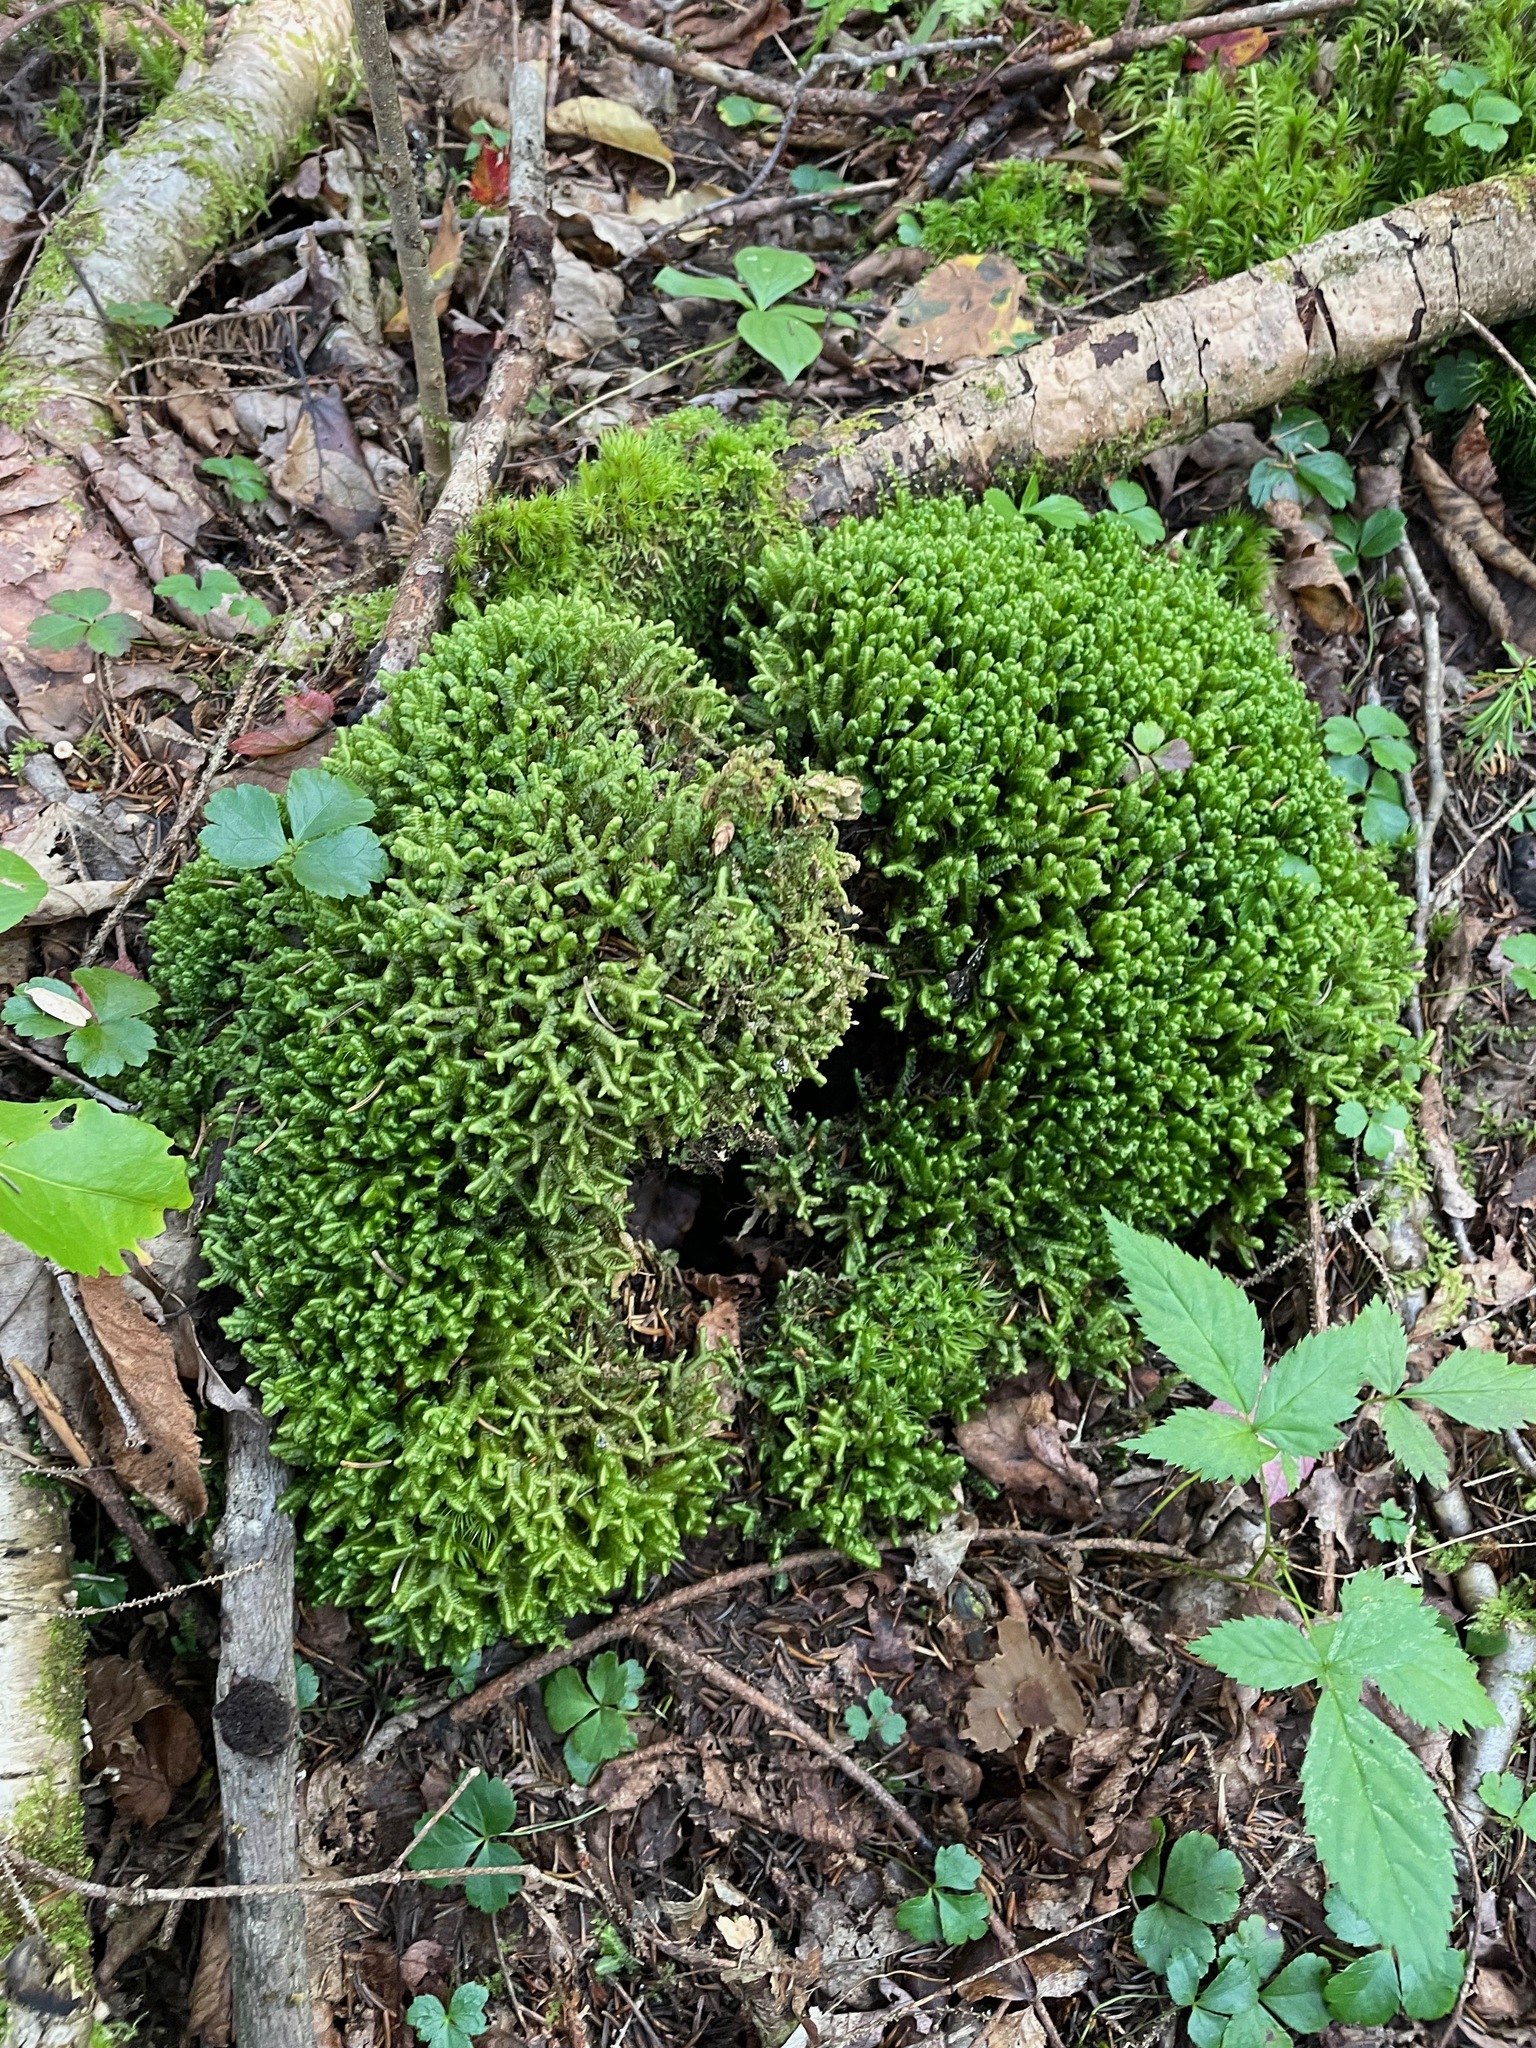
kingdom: Plantae
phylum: Marchantiophyta
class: Jungermanniopsida
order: Jungermanniales
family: Lepidoziaceae
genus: Bazzania
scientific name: Bazzania trilobata
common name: Three-lobed whipwort
